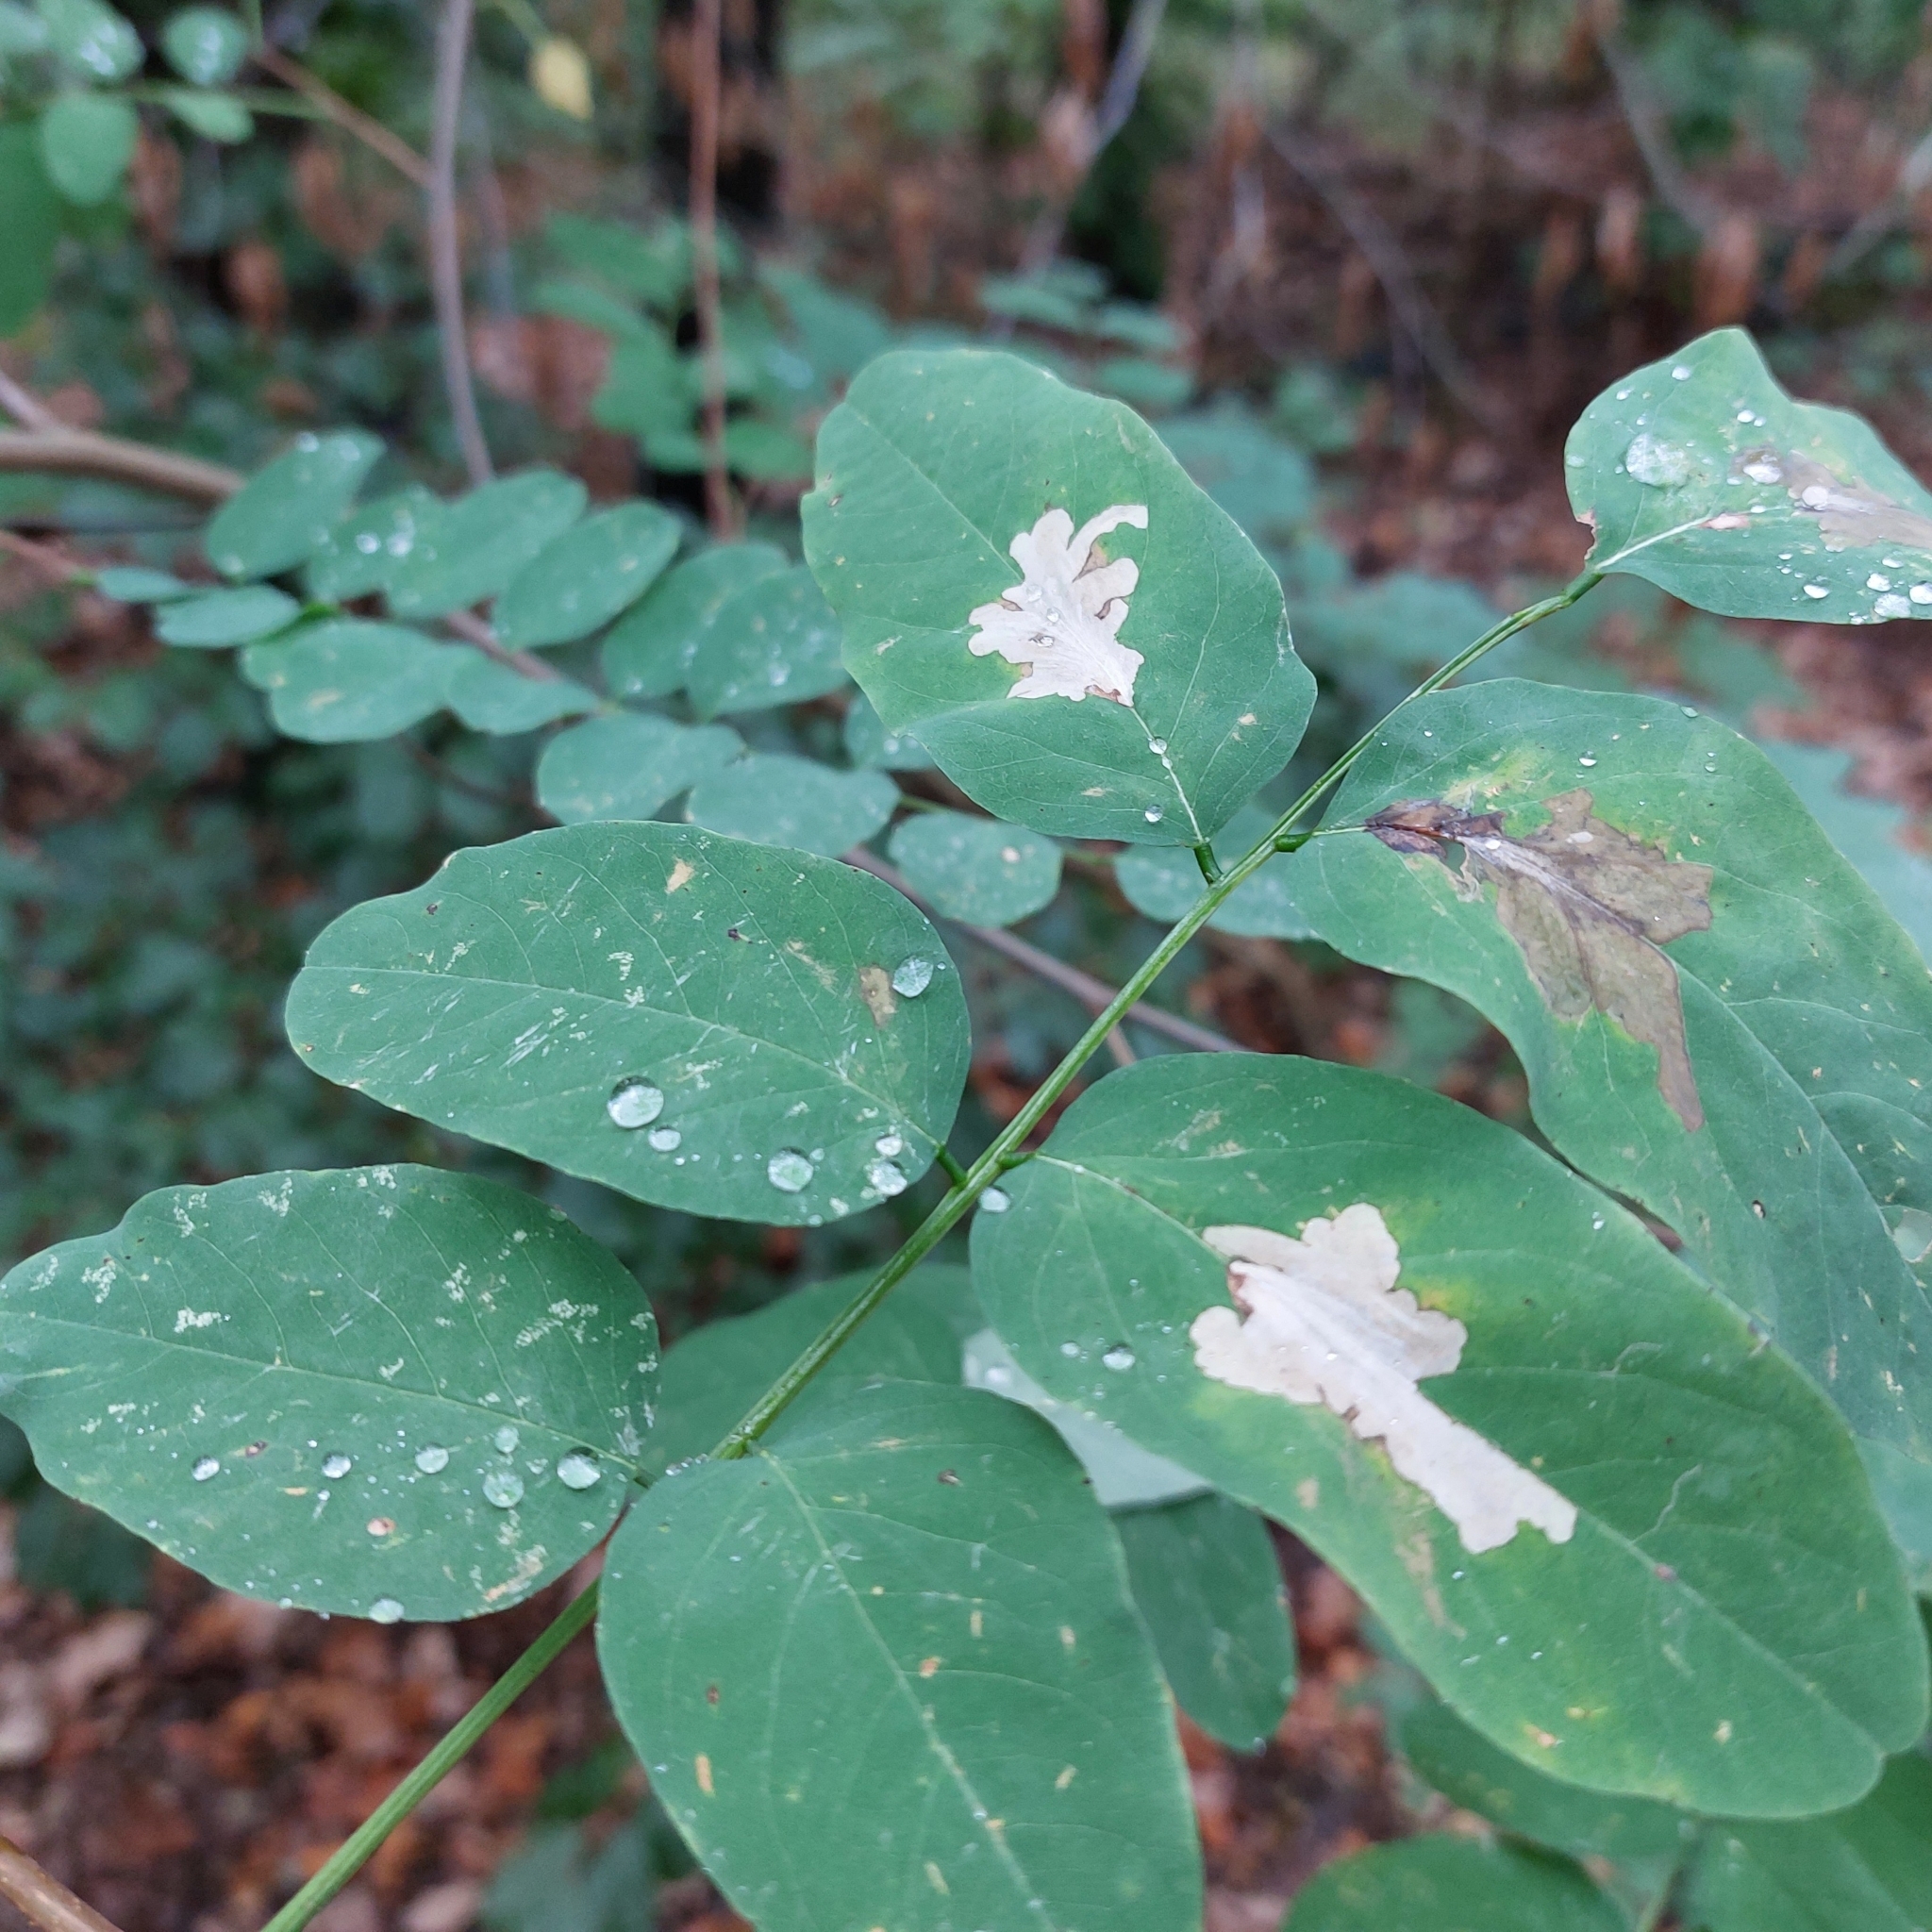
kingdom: Animalia
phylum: Arthropoda
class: Insecta
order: Lepidoptera
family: Gracillariidae
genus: Parectopa
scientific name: Parectopa robiniella
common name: Locust digitate leafminer
